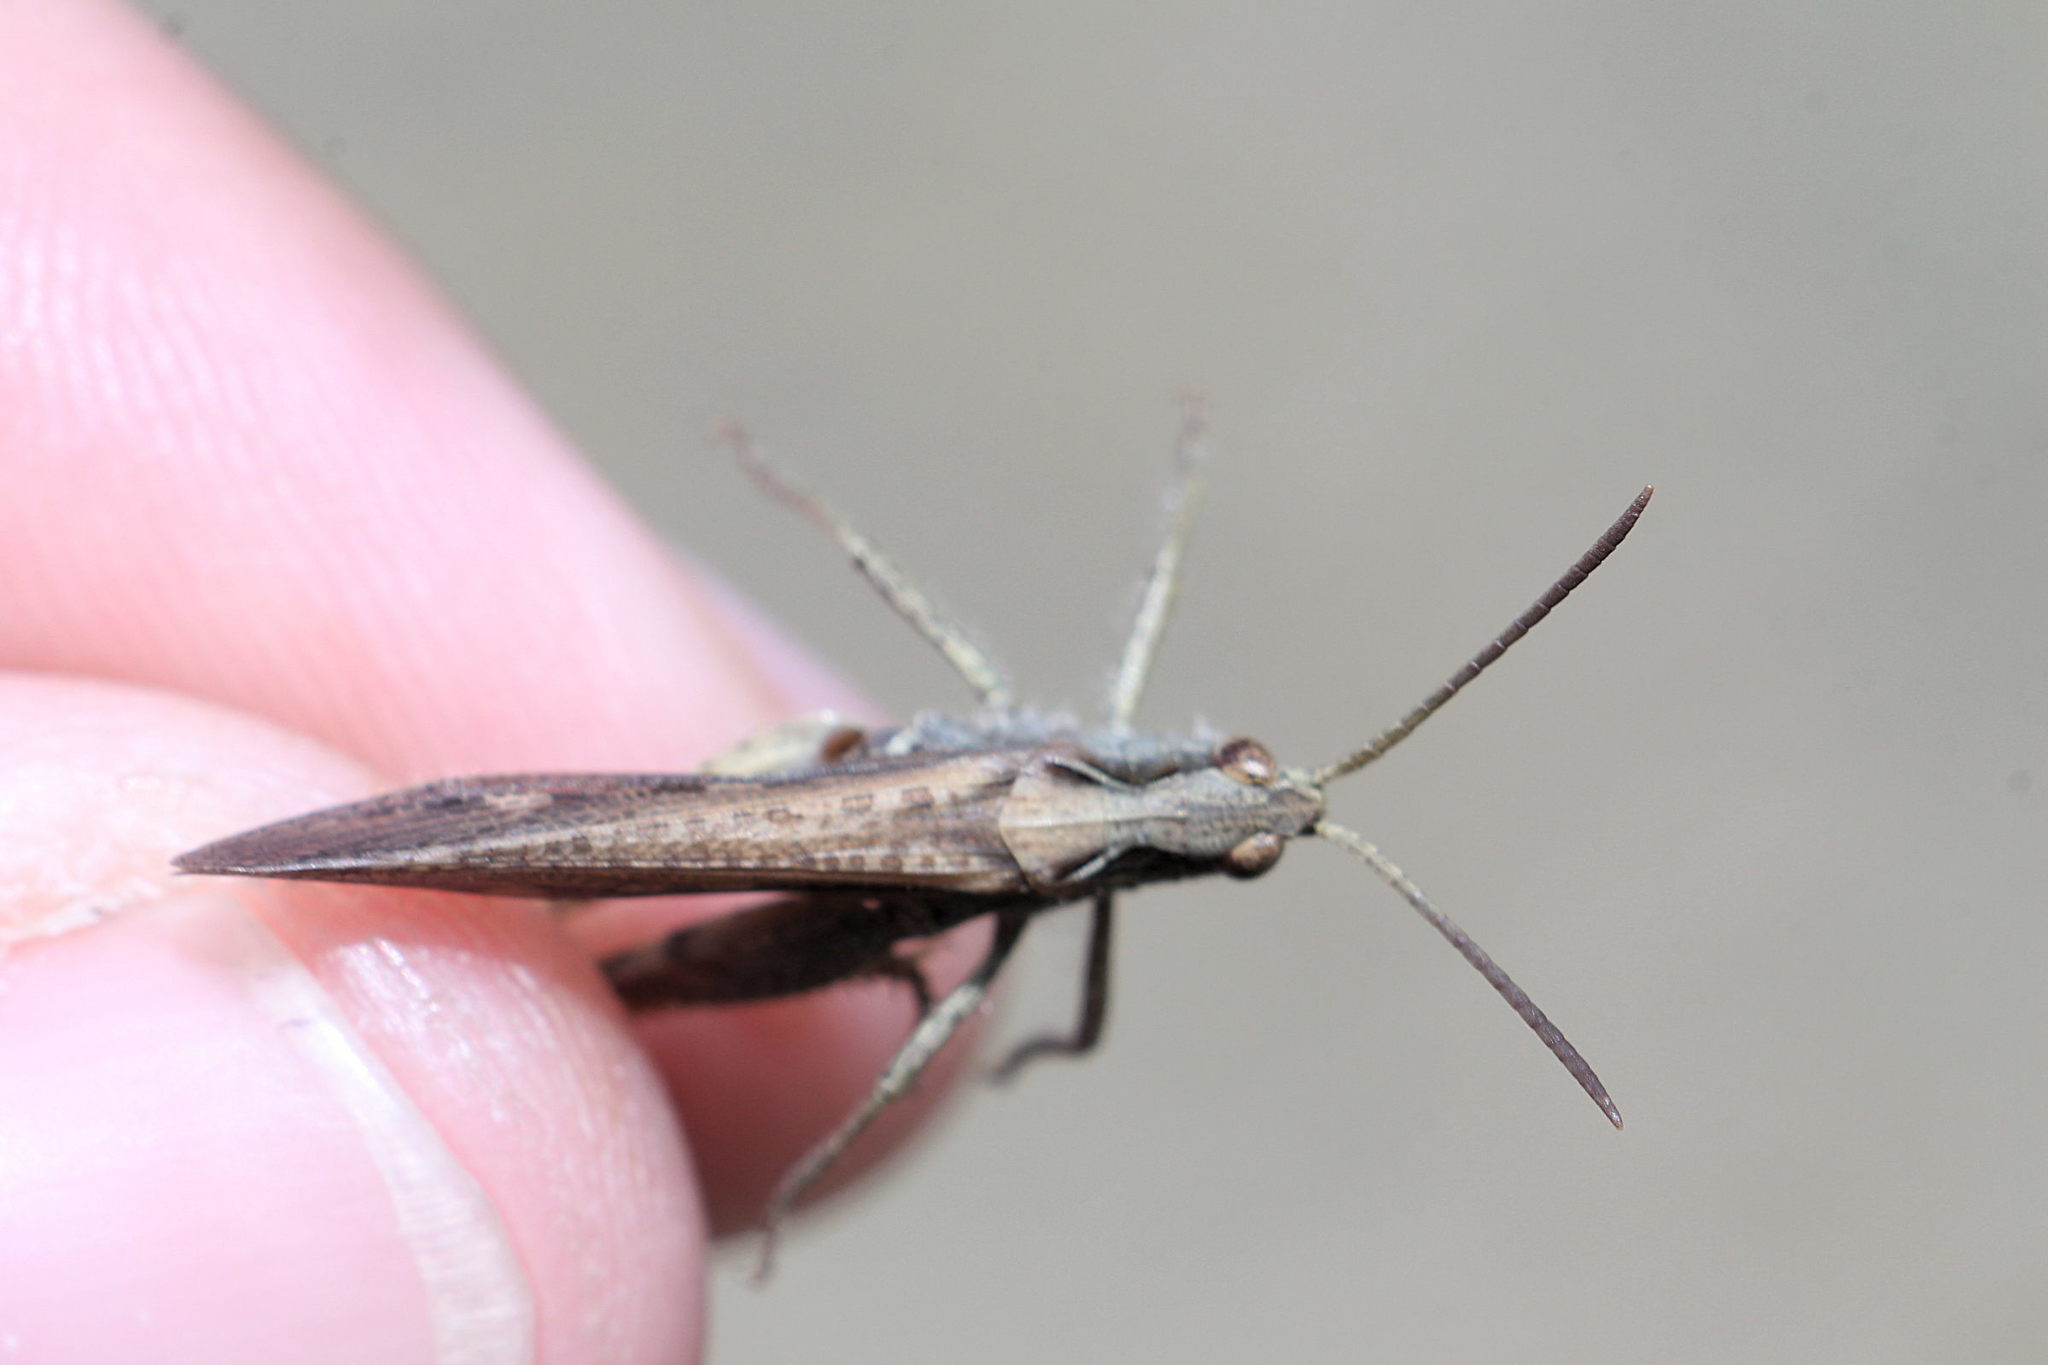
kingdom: Animalia
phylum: Arthropoda
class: Insecta
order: Orthoptera
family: Acrididae
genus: Chorthippus
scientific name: Chorthippus brunneus
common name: Field grasshopper
